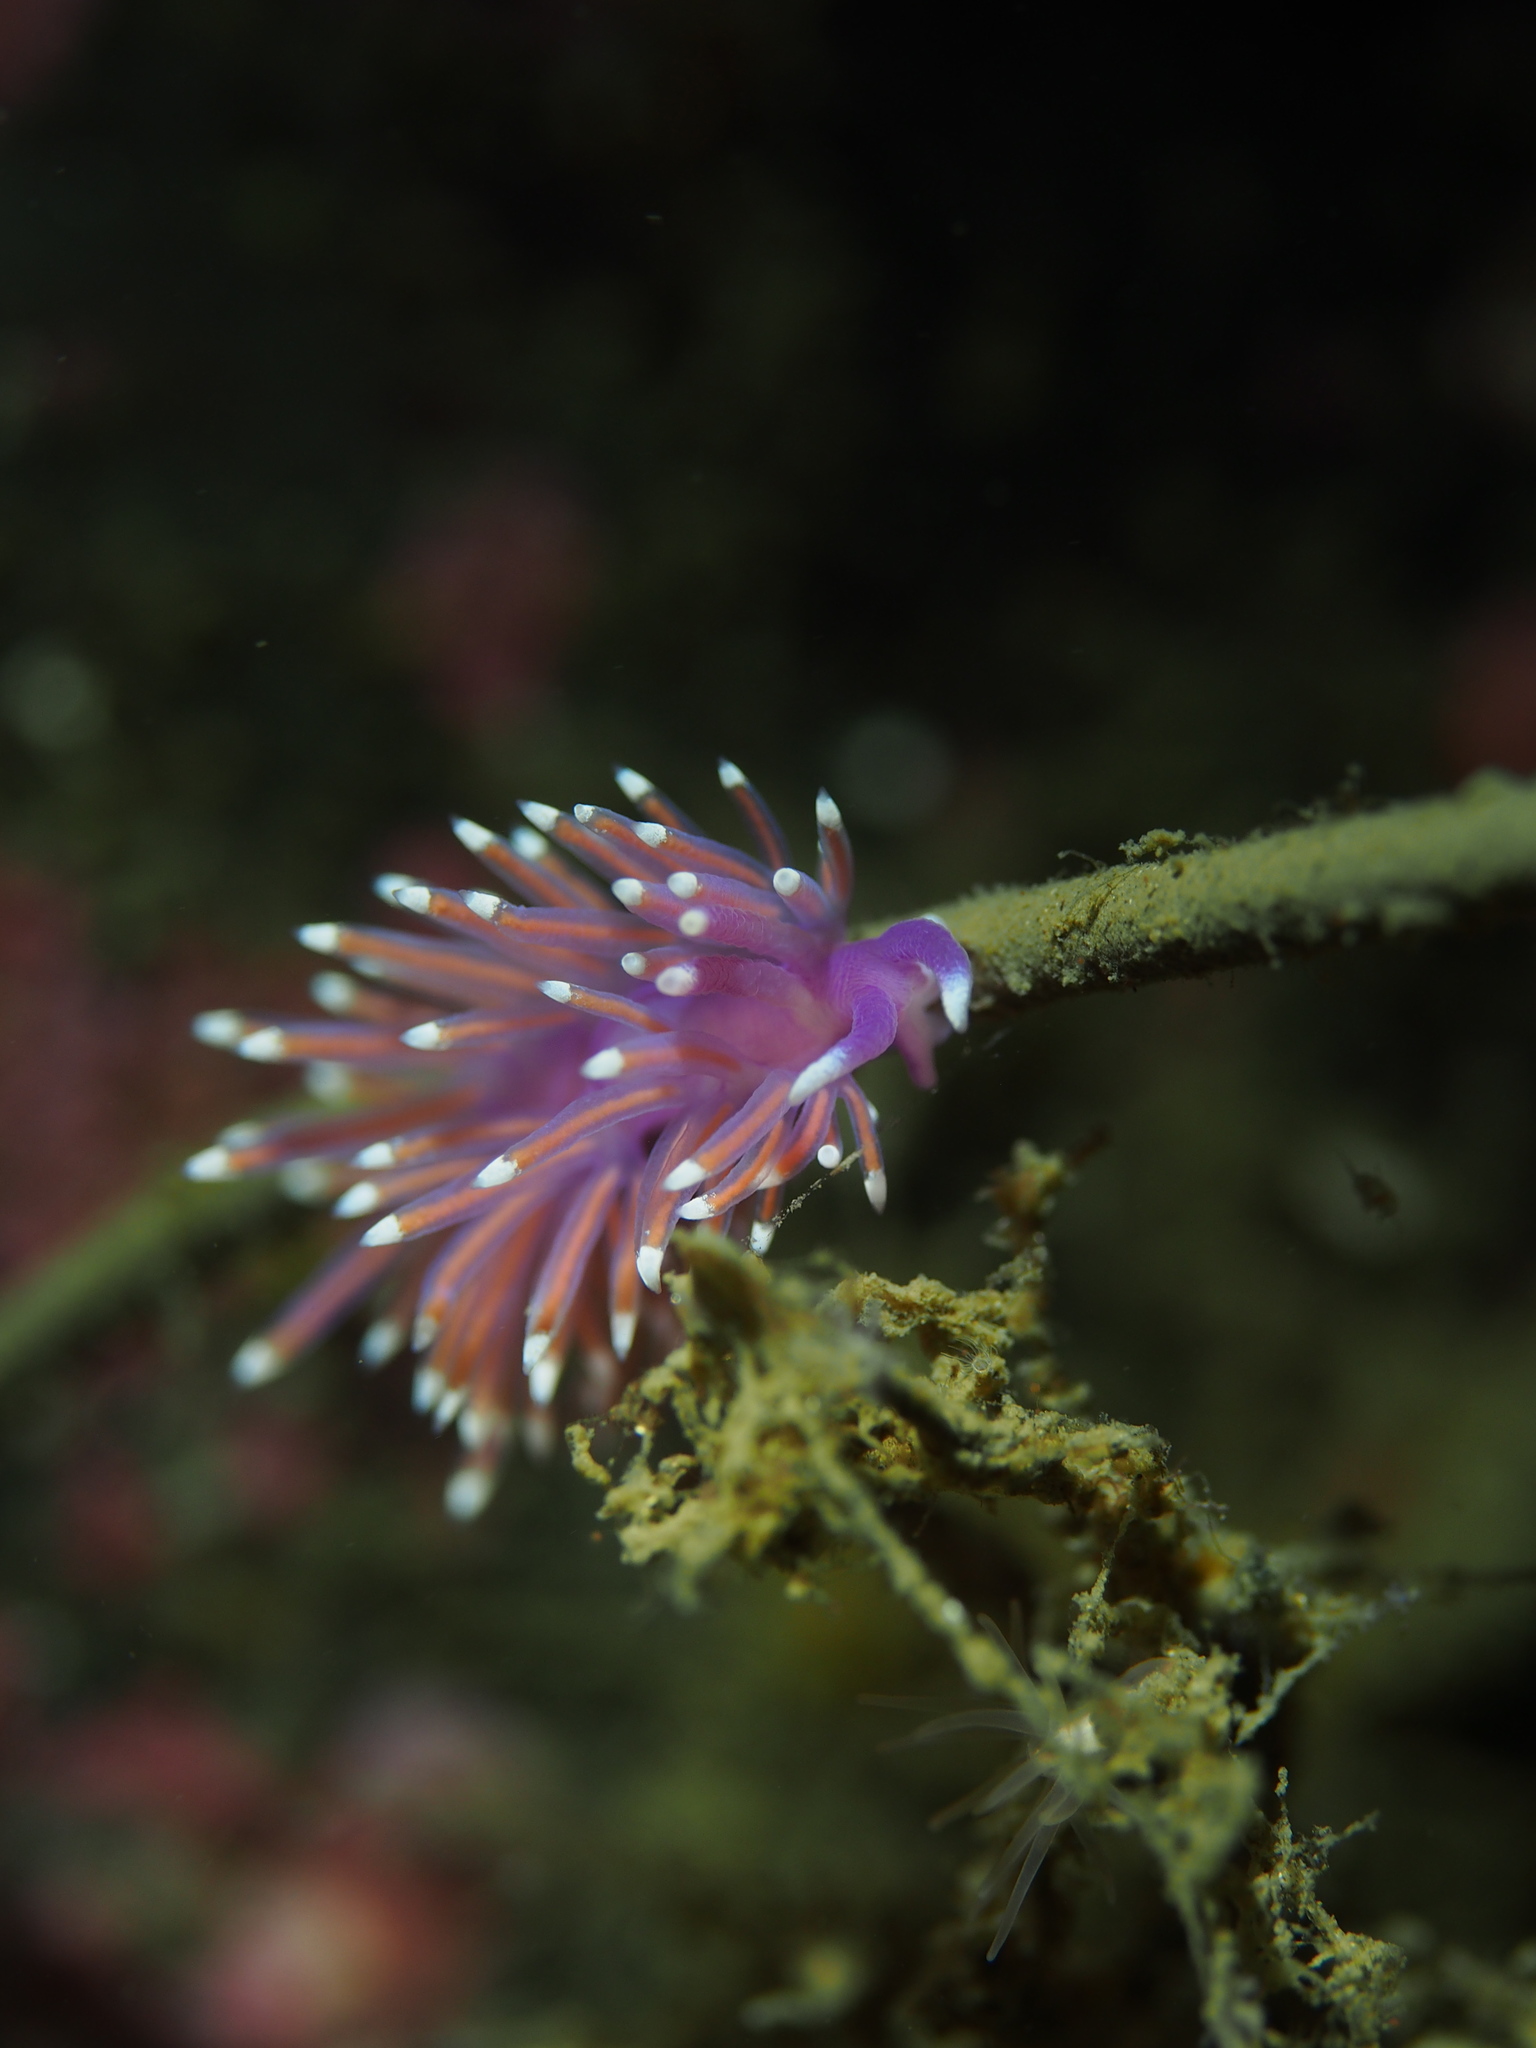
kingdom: Animalia
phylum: Mollusca
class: Gastropoda
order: Nudibranchia
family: Flabellinidae
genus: Edmundsella
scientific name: Edmundsella pedata
